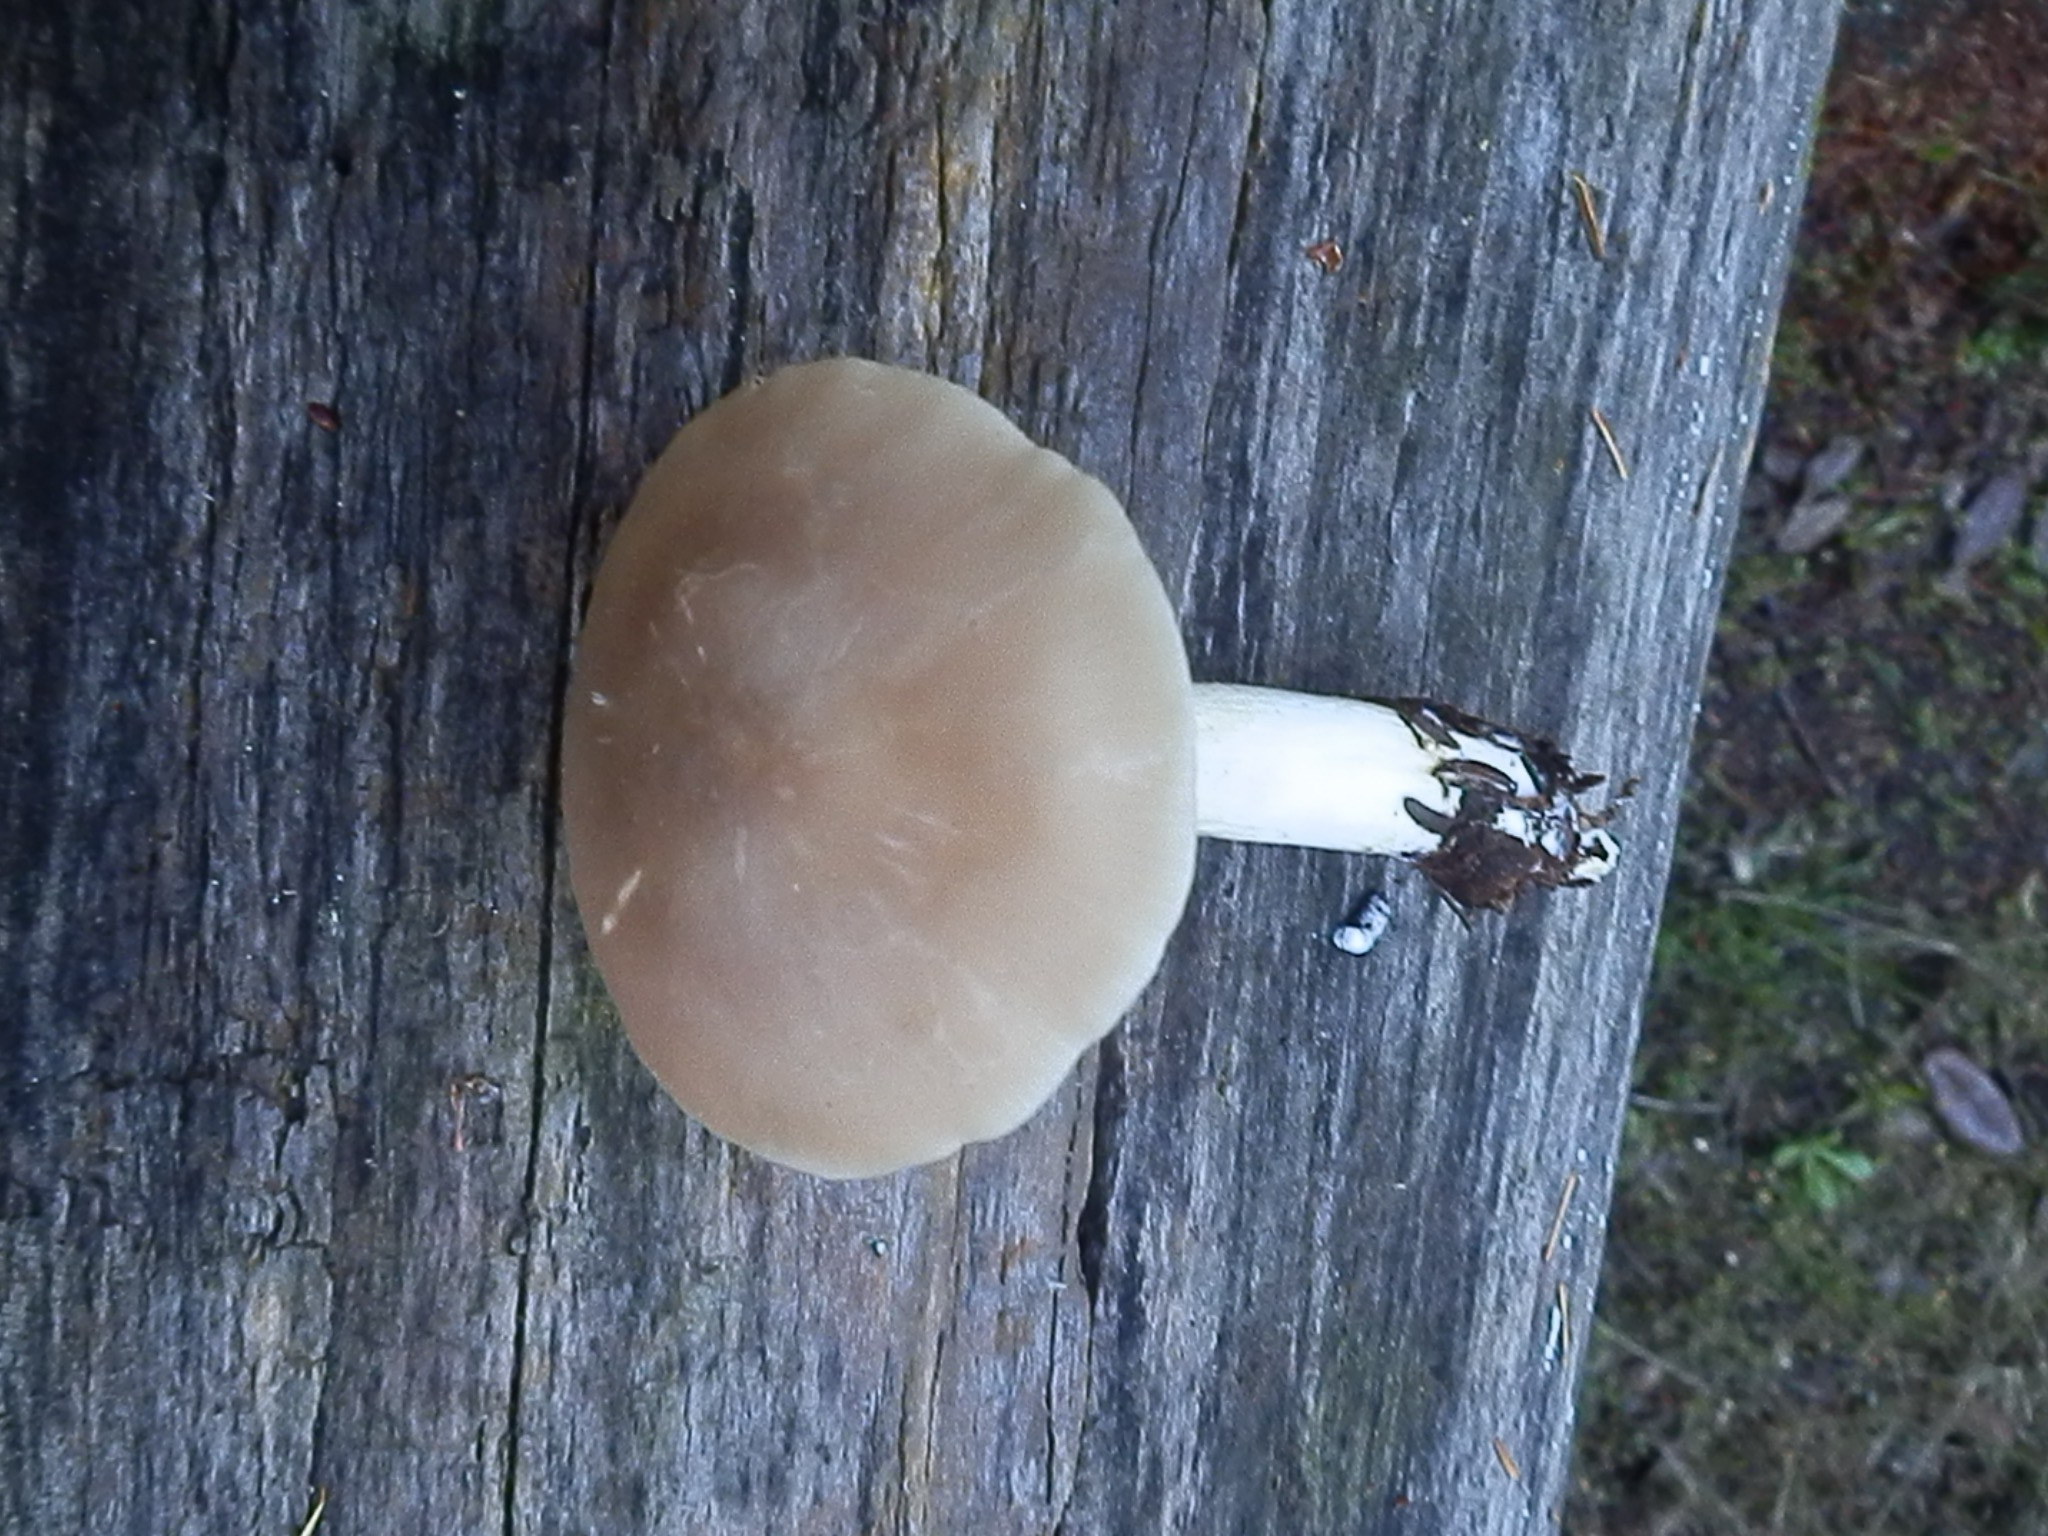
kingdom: Fungi
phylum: Basidiomycota
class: Agaricomycetes
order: Agaricales
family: Entolomataceae
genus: Entoloma
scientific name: Entoloma sericatum
